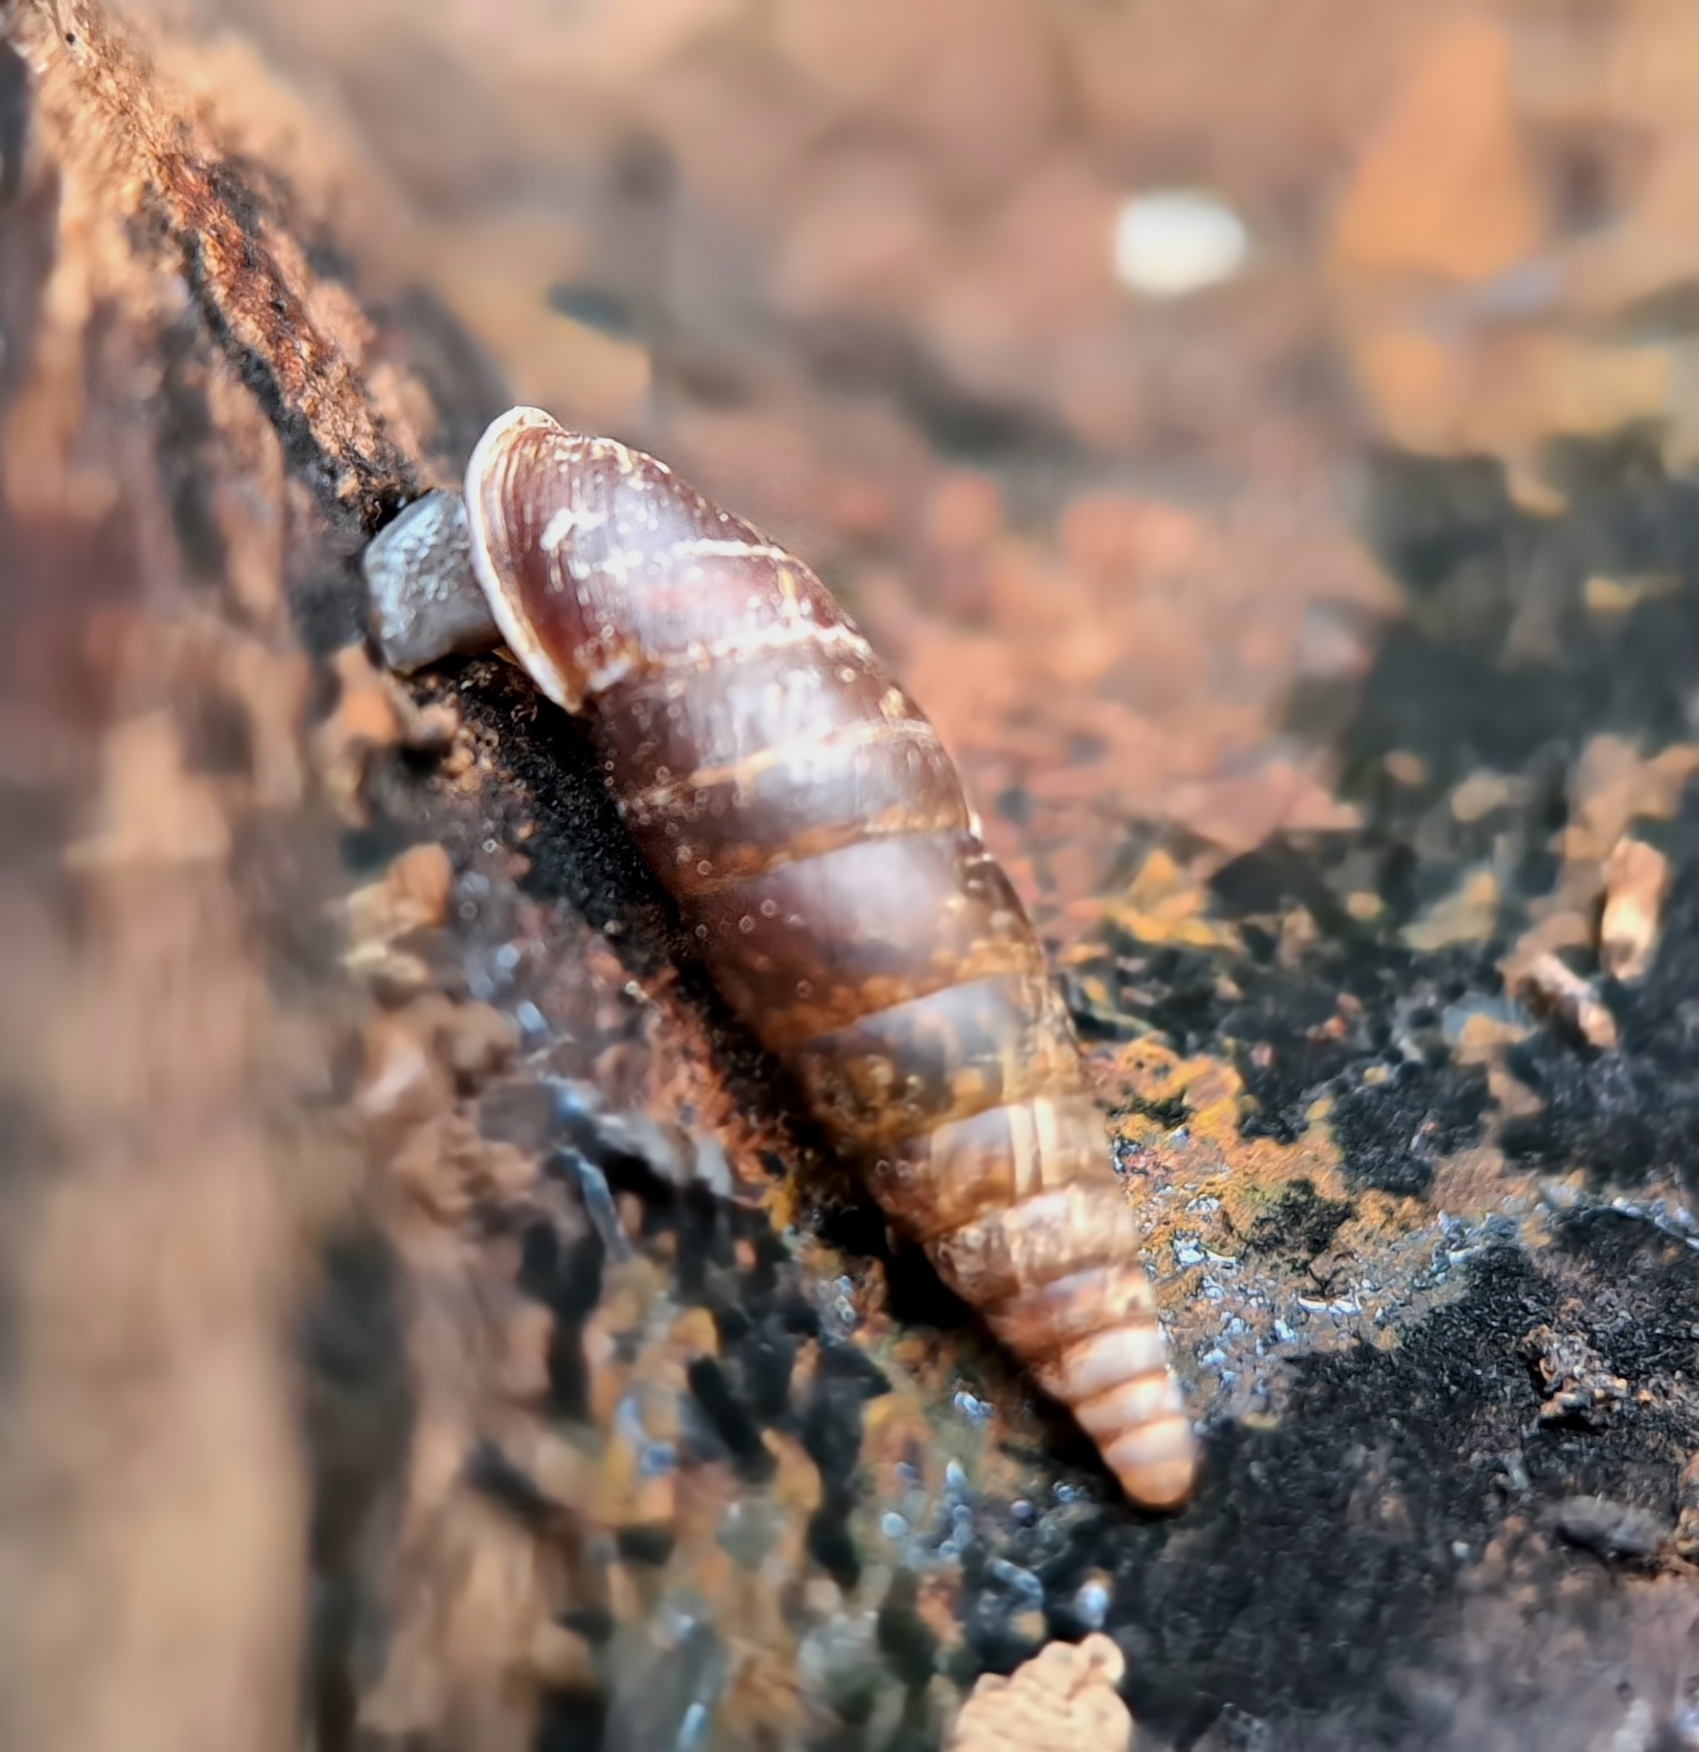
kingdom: Animalia
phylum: Mollusca
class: Gastropoda
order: Stylommatophora
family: Clausiliidae
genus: Cochlodina
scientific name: Cochlodina laminata
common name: Plaited door snail
